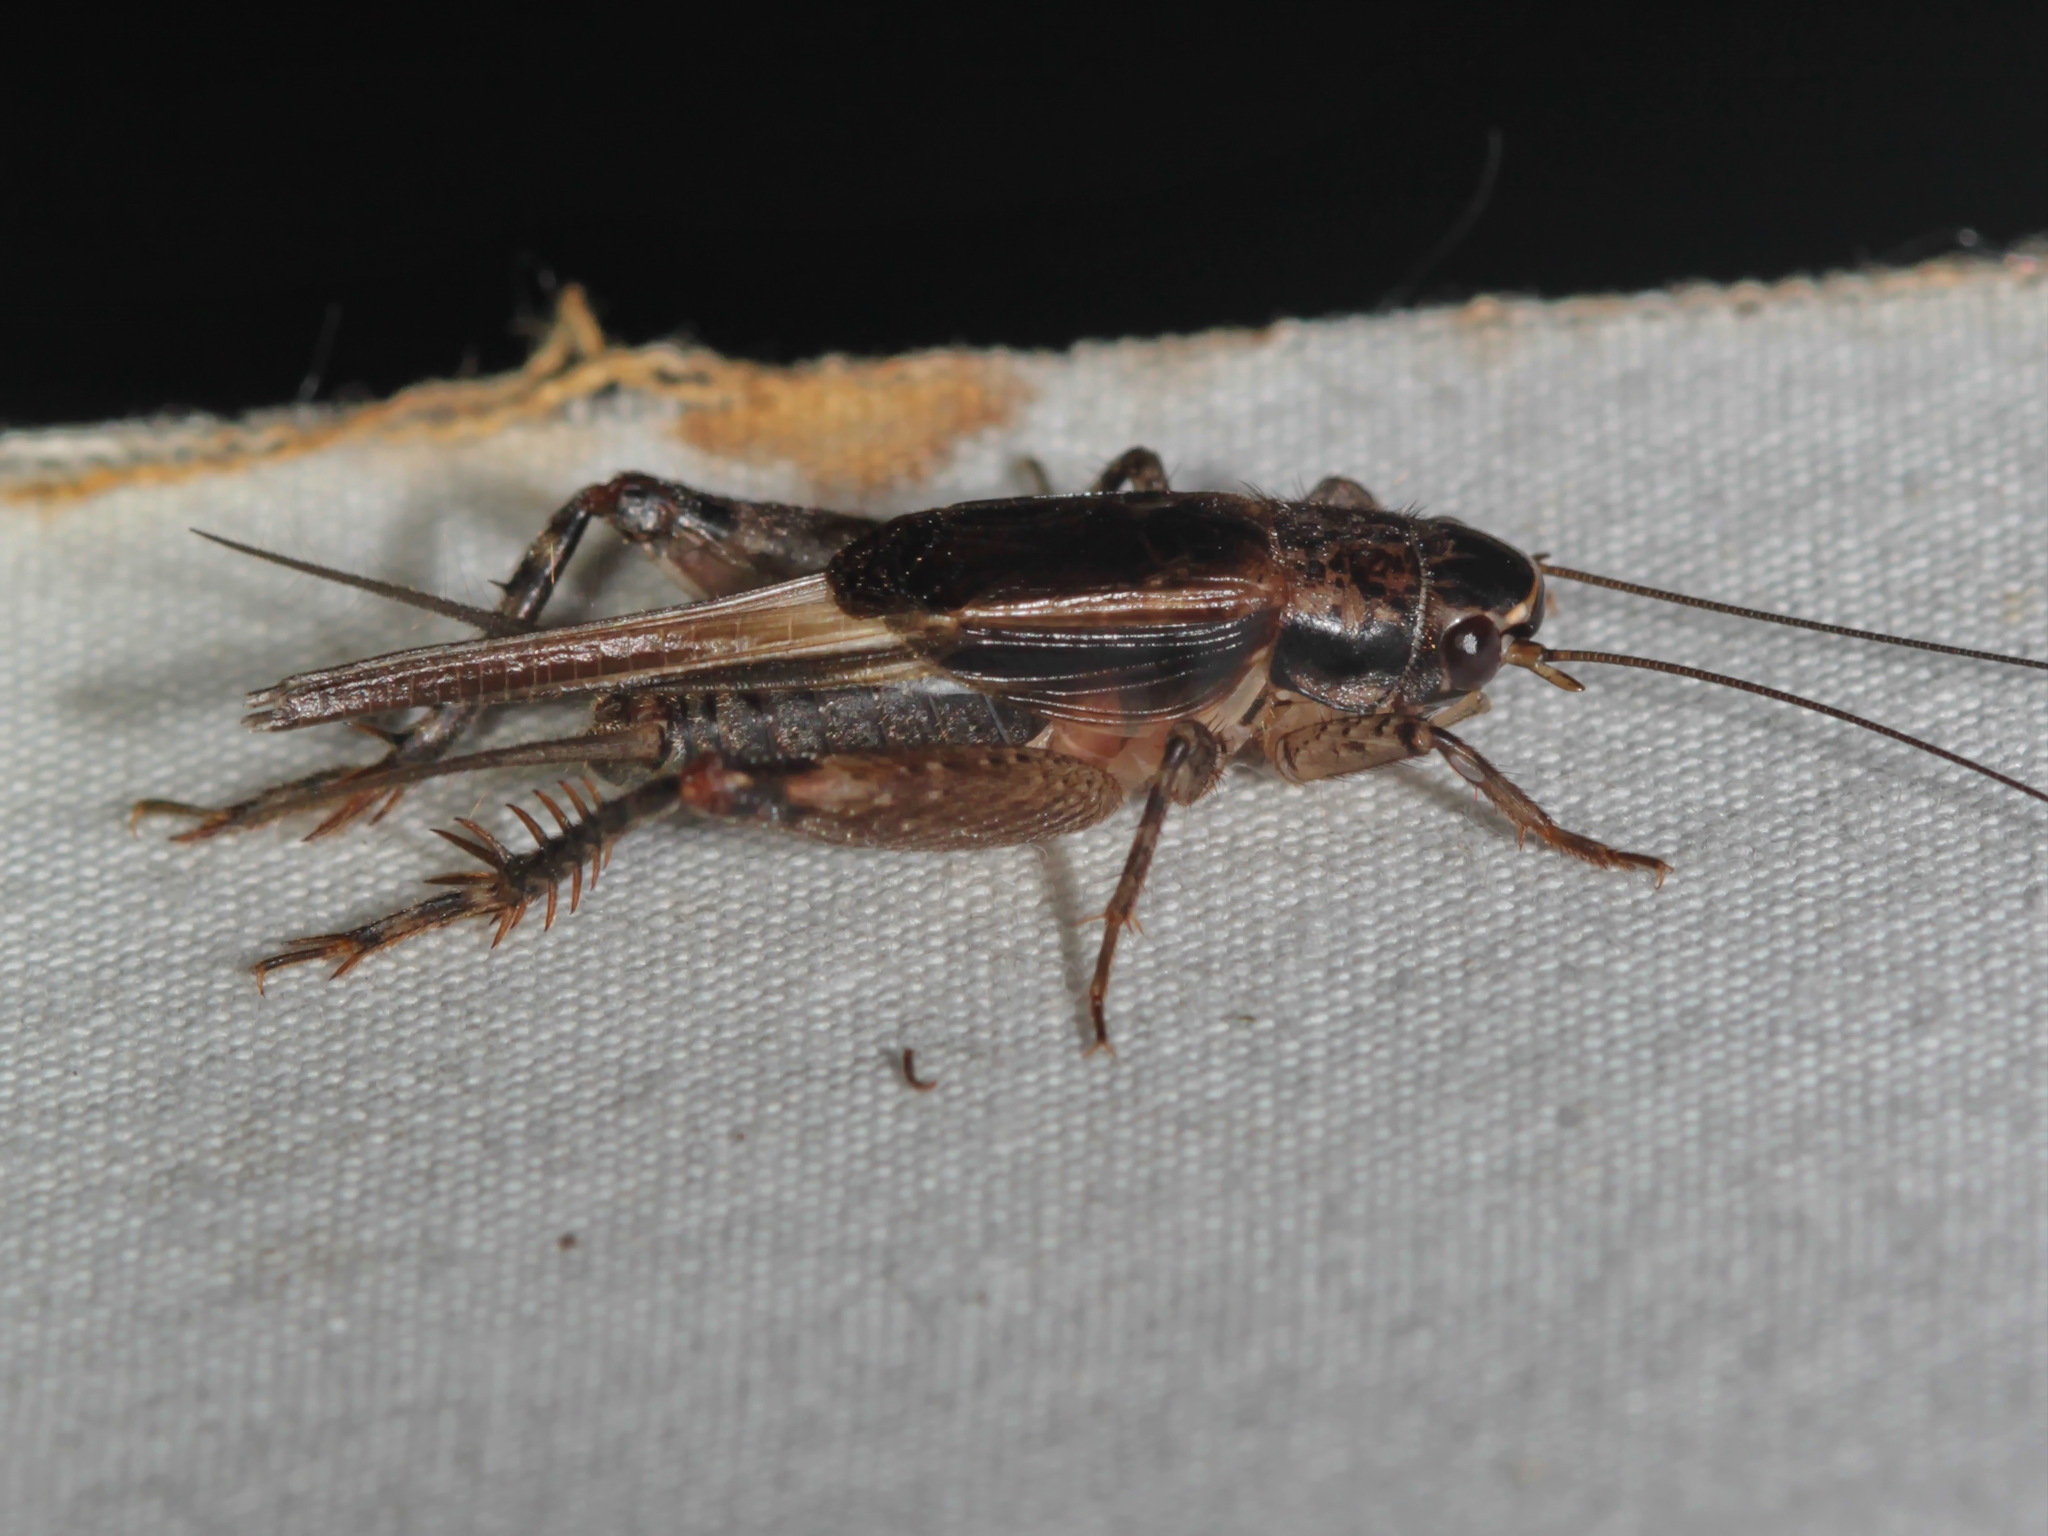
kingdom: Animalia
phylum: Arthropoda
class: Insecta
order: Orthoptera
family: Gryllidae
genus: Loxoblemmus
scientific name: Loxoblemmus parabolicus
